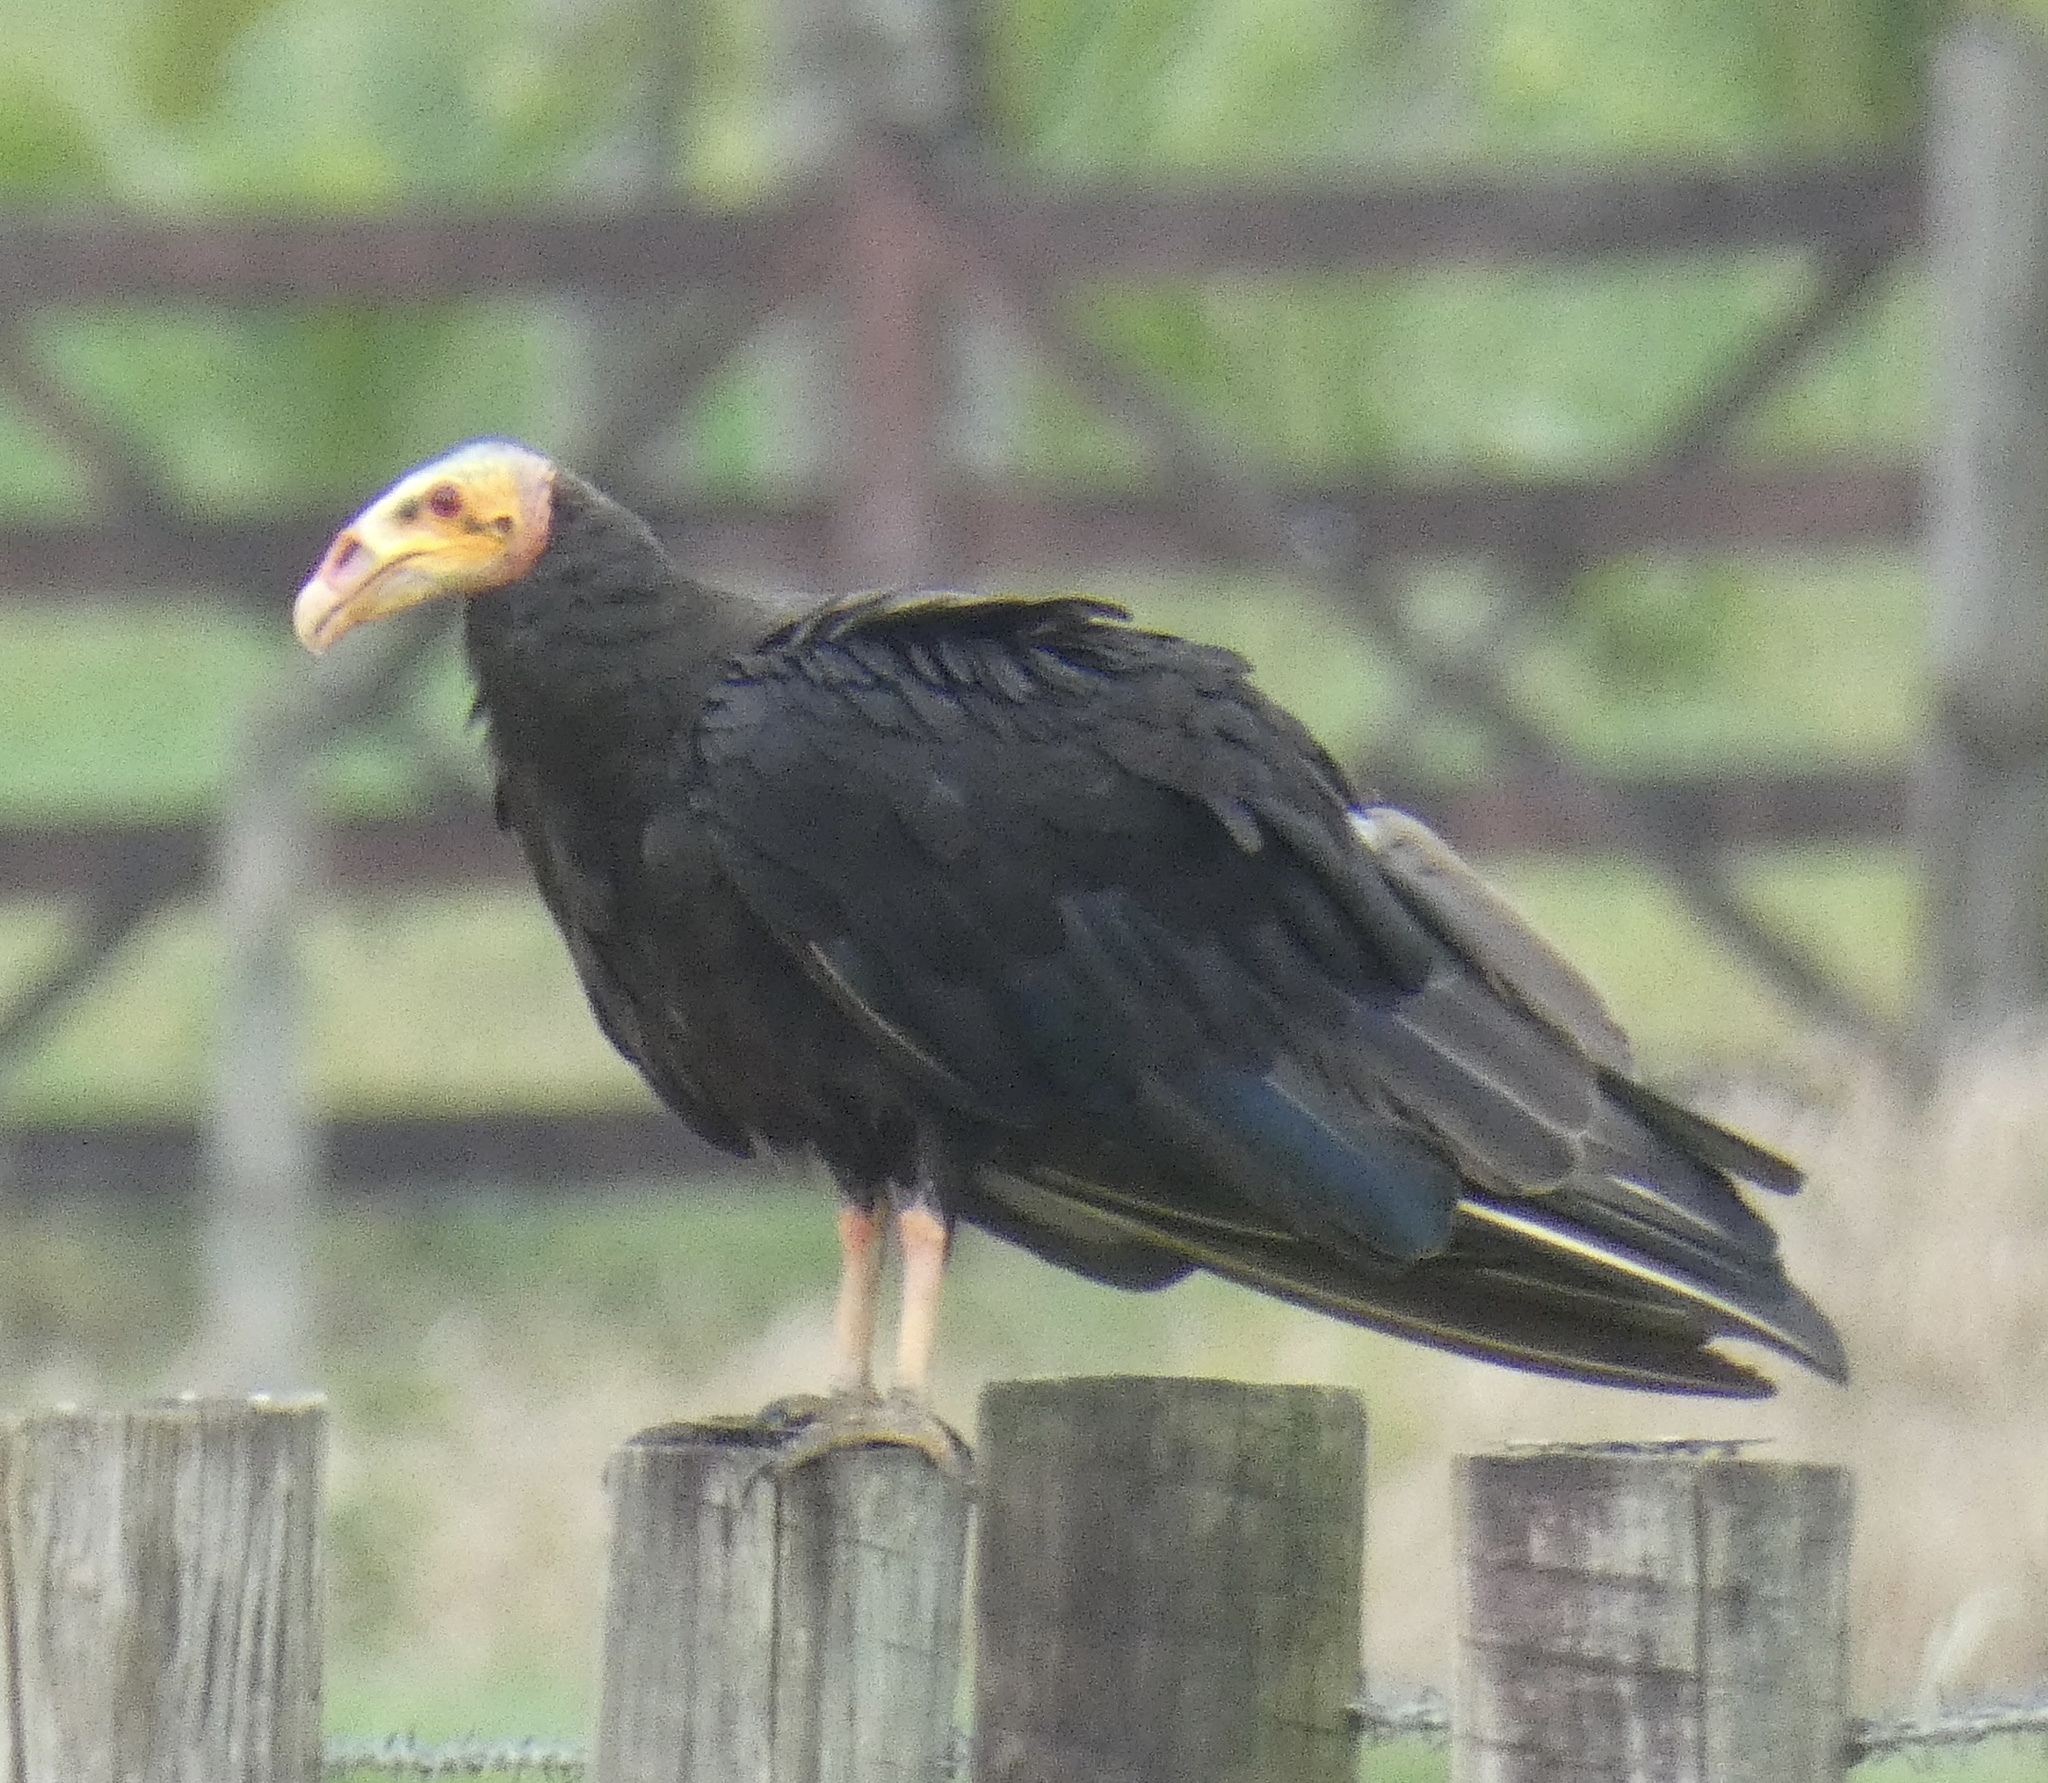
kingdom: Animalia
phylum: Chordata
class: Aves
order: Accipitriformes
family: Cathartidae
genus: Cathartes
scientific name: Cathartes burrovianus
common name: Lesser yellow-headed vulture
